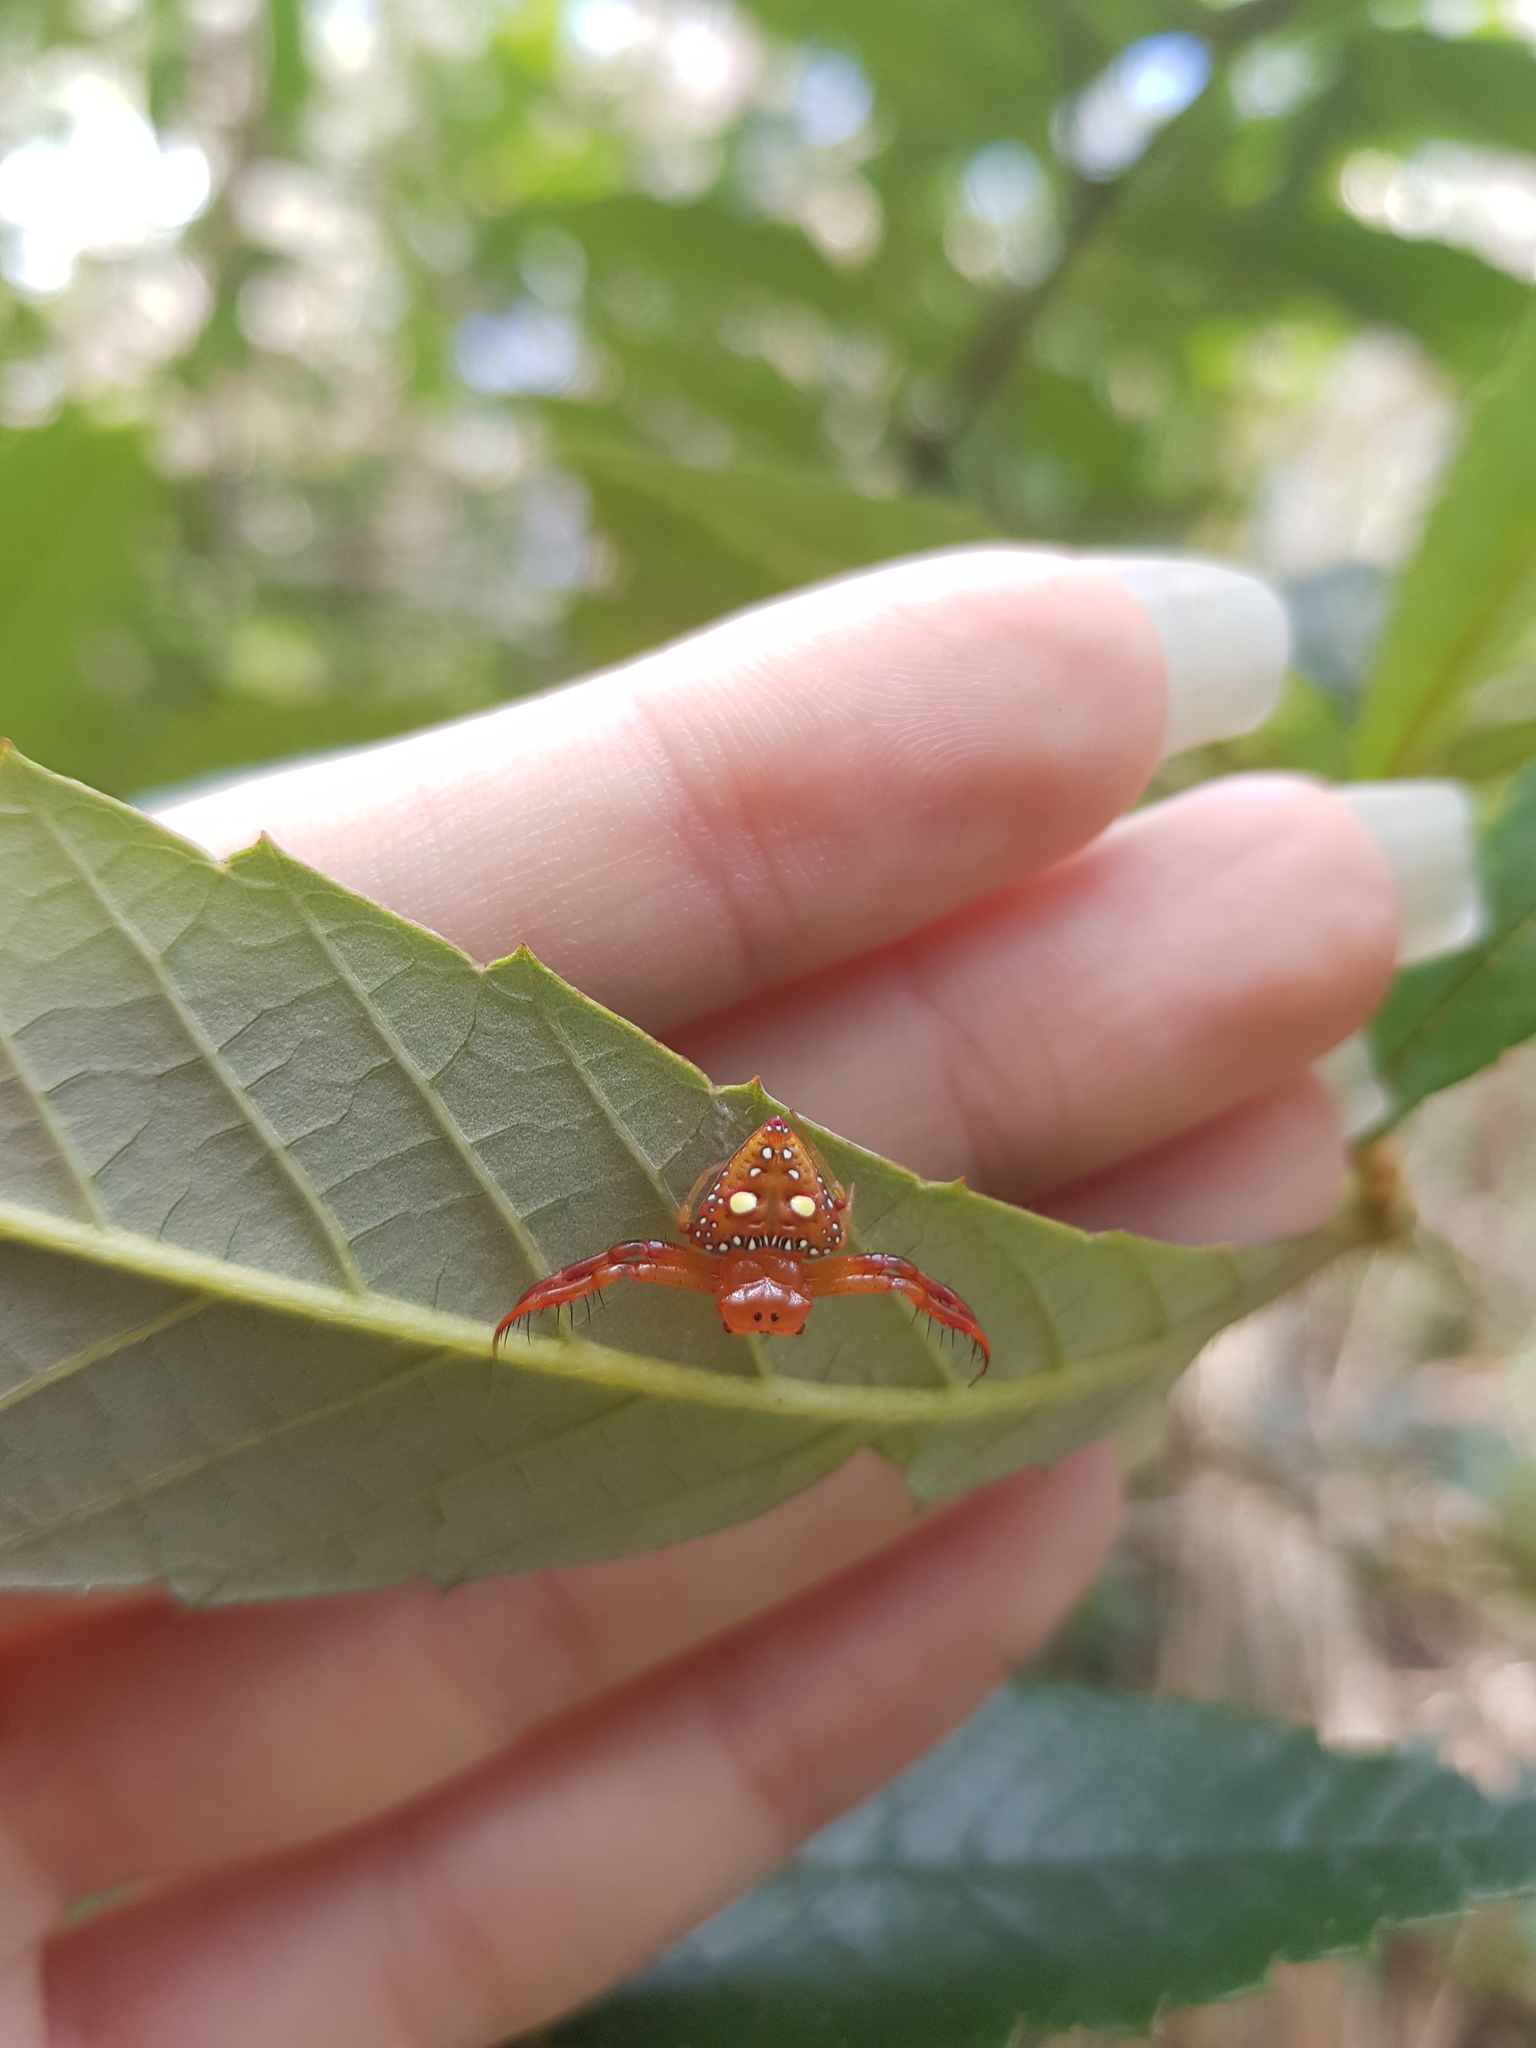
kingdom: Animalia
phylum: Arthropoda
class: Arachnida
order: Araneae
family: Arkyidae
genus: Arkys
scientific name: Arkys lancearius
